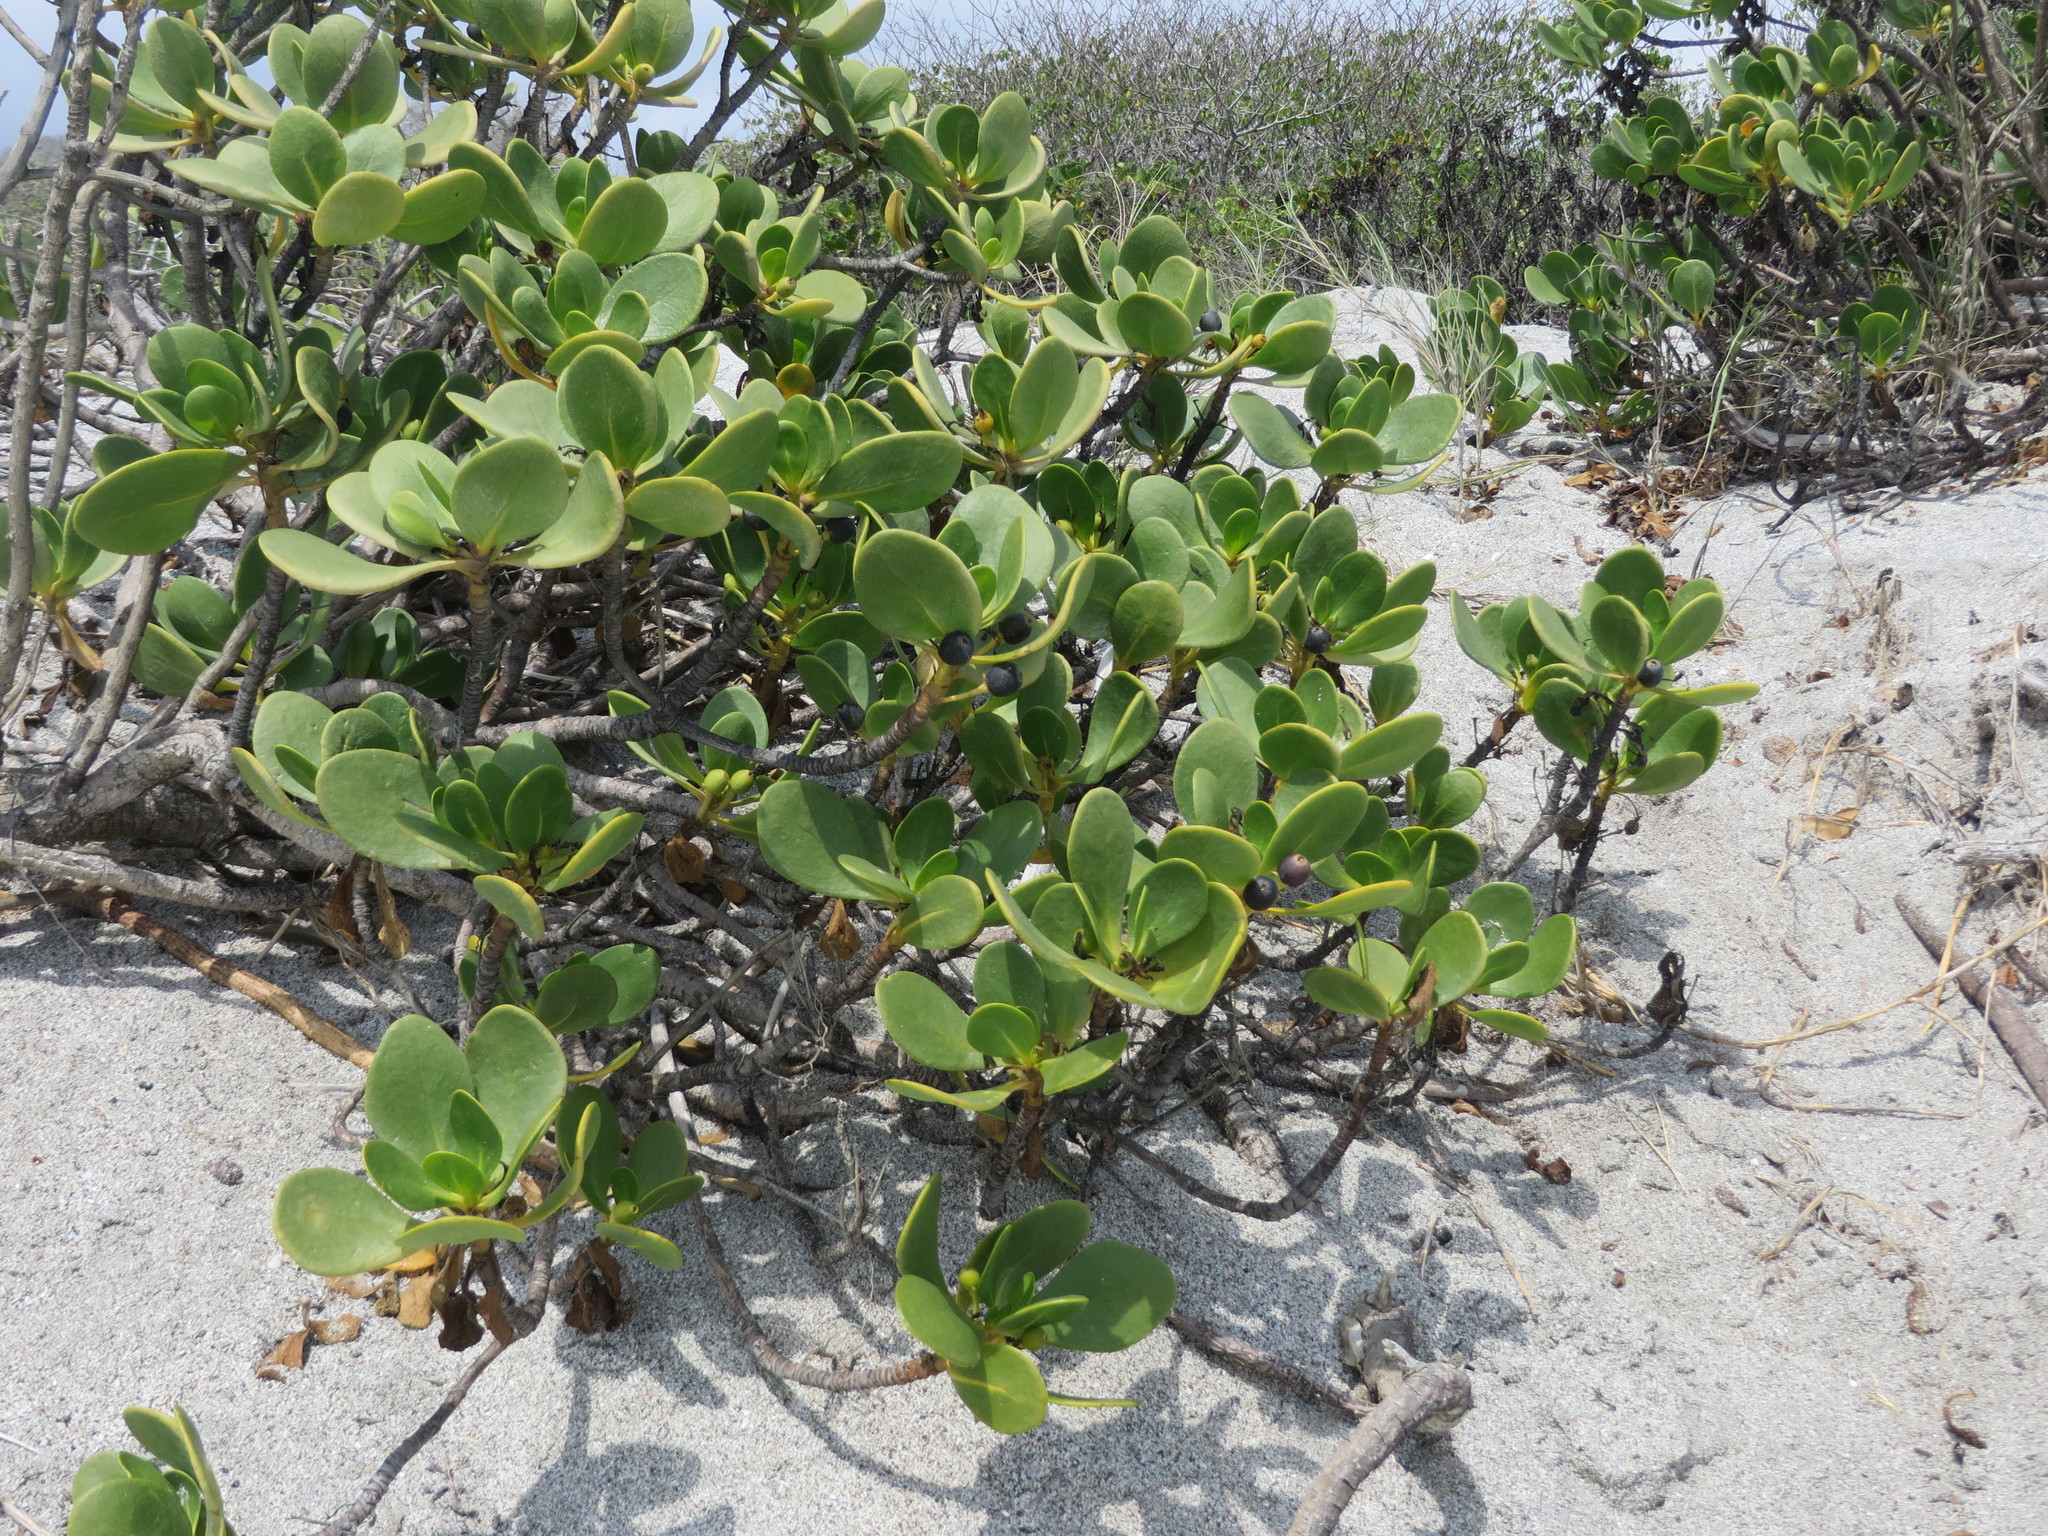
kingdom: Plantae
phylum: Tracheophyta
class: Magnoliopsida
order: Asterales
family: Goodeniaceae
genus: Scaevola
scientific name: Scaevola plumieri
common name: Gull feed
